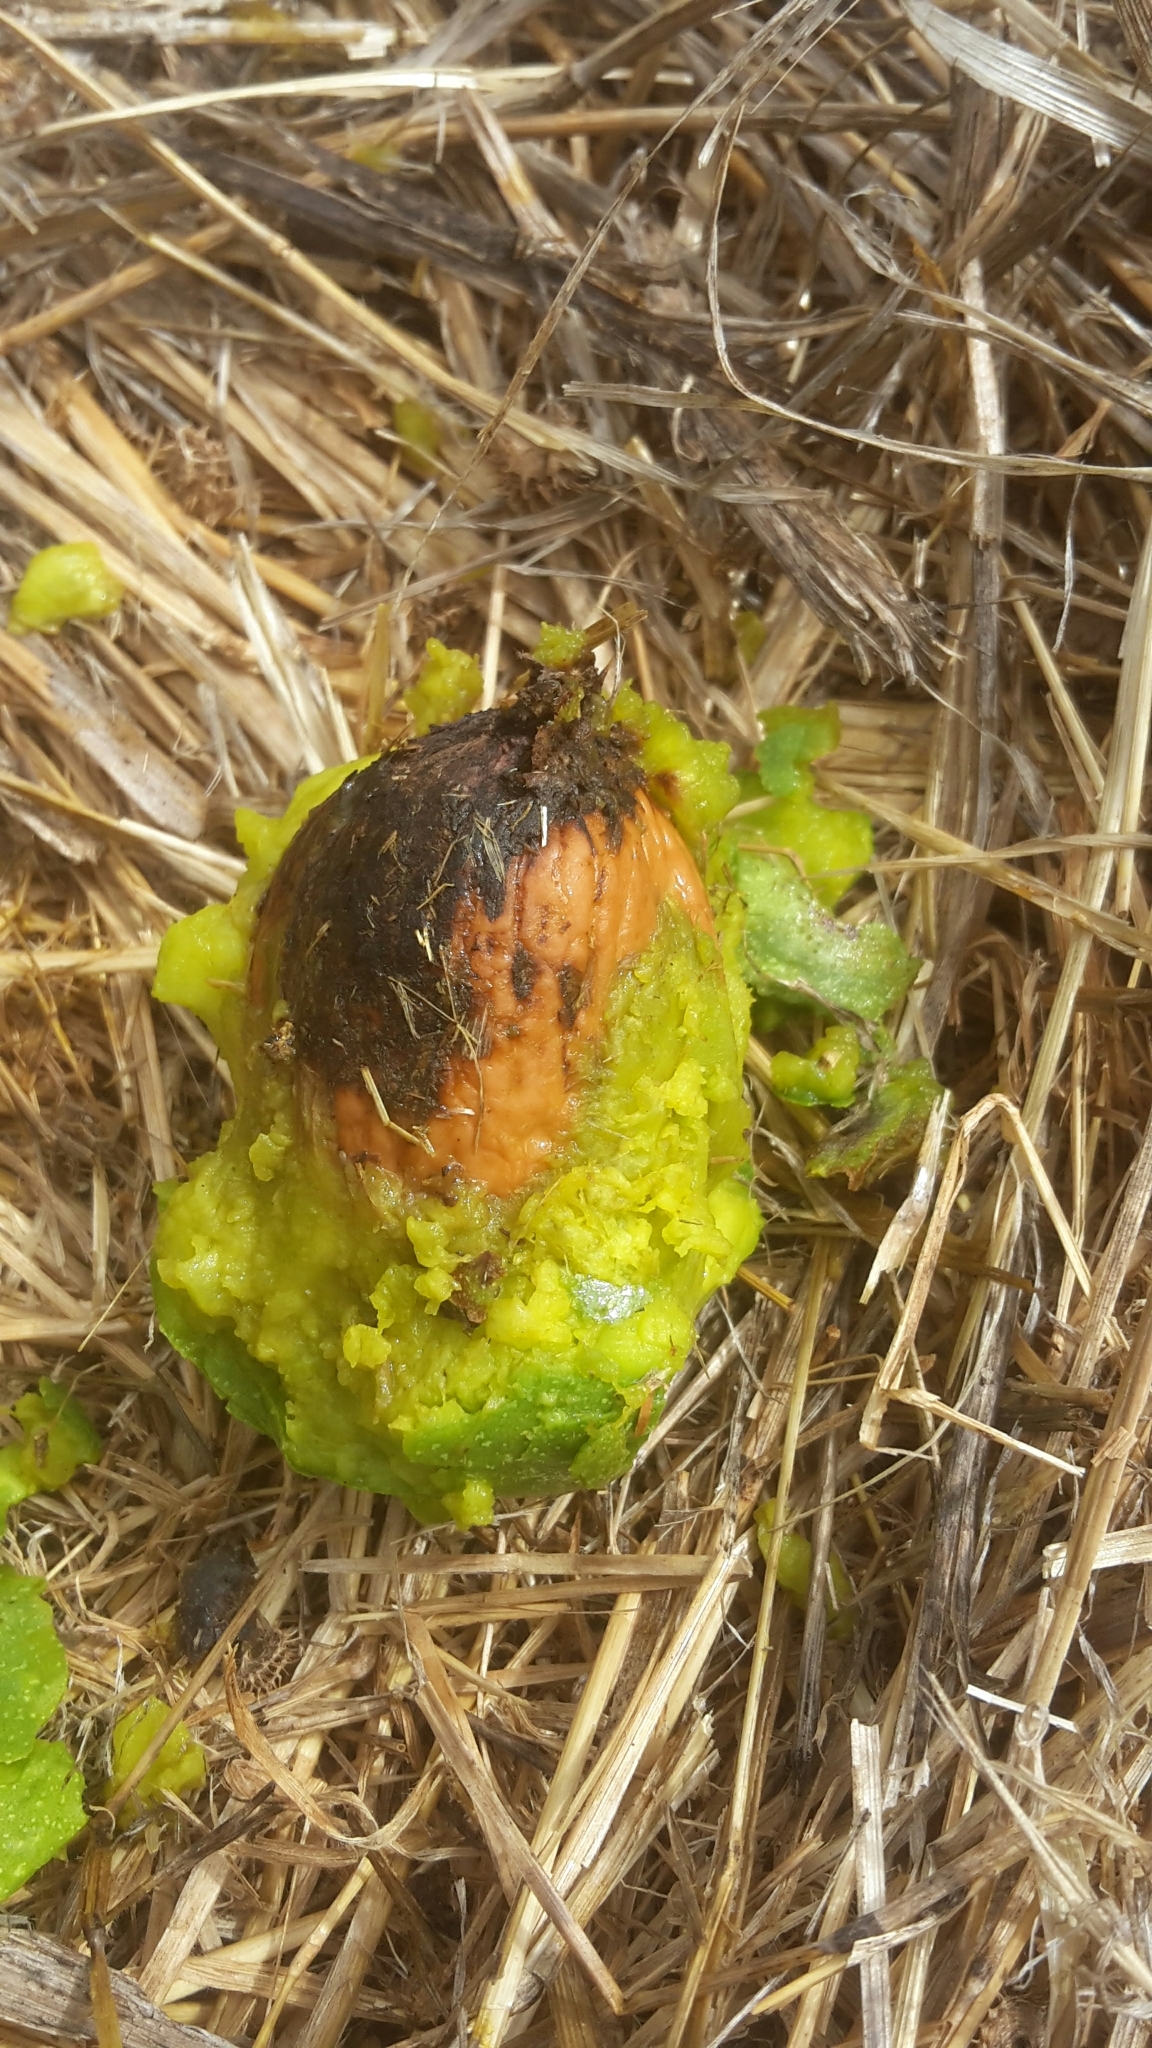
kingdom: Plantae
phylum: Tracheophyta
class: Magnoliopsida
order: Fagales
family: Juglandaceae
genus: Juglans
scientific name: Juglans regia
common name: Walnut
